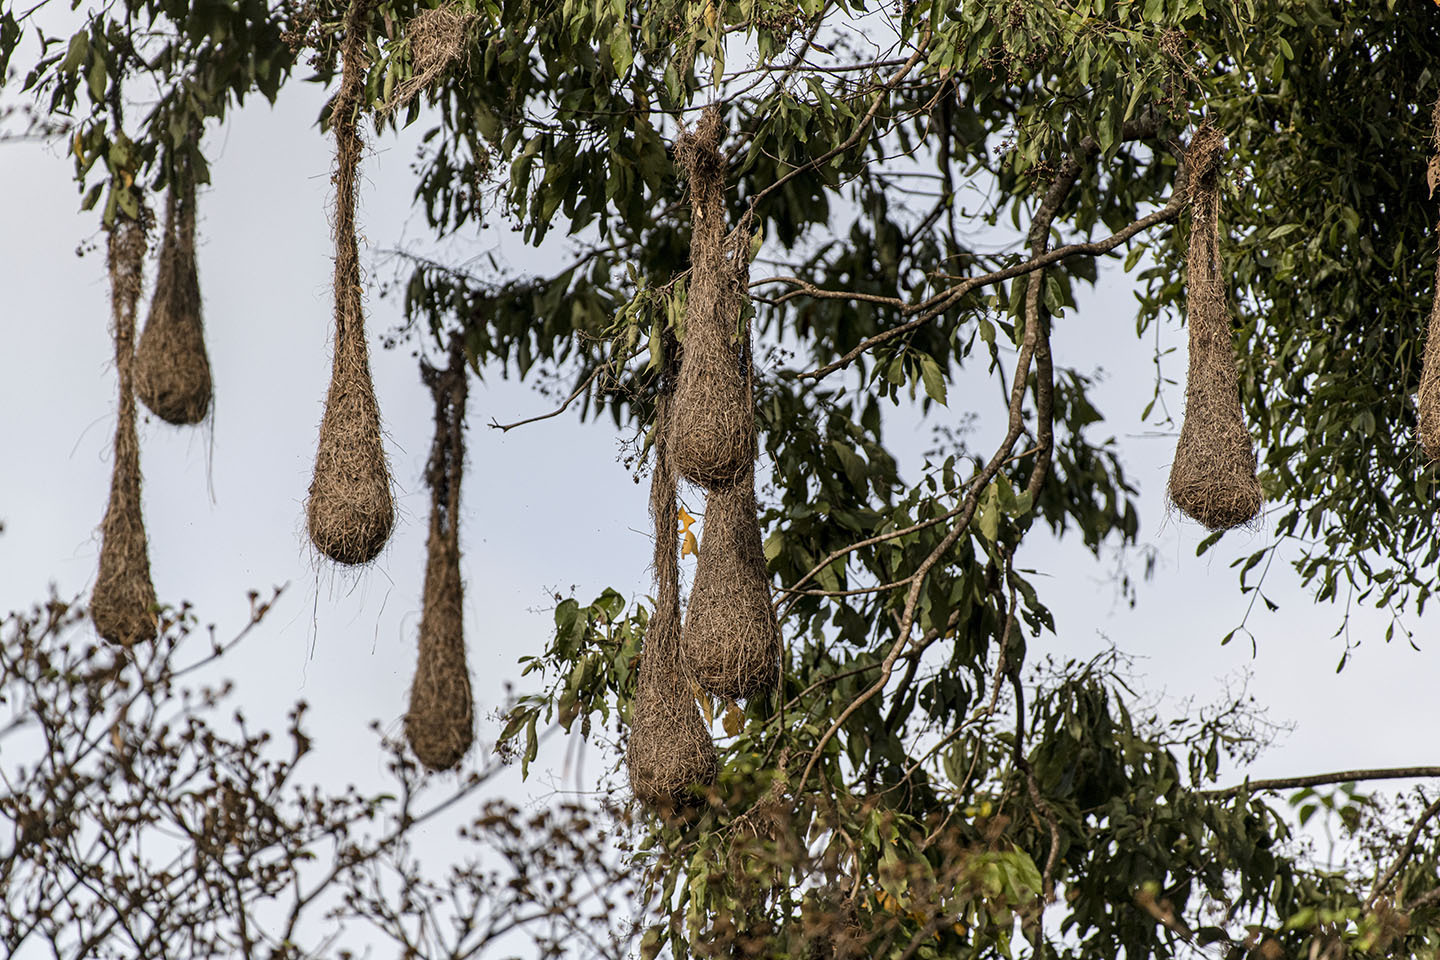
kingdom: Animalia
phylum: Chordata
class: Aves
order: Passeriformes
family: Icteridae
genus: Psarocolius
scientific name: Psarocolius decumanus
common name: Crested oropendola
